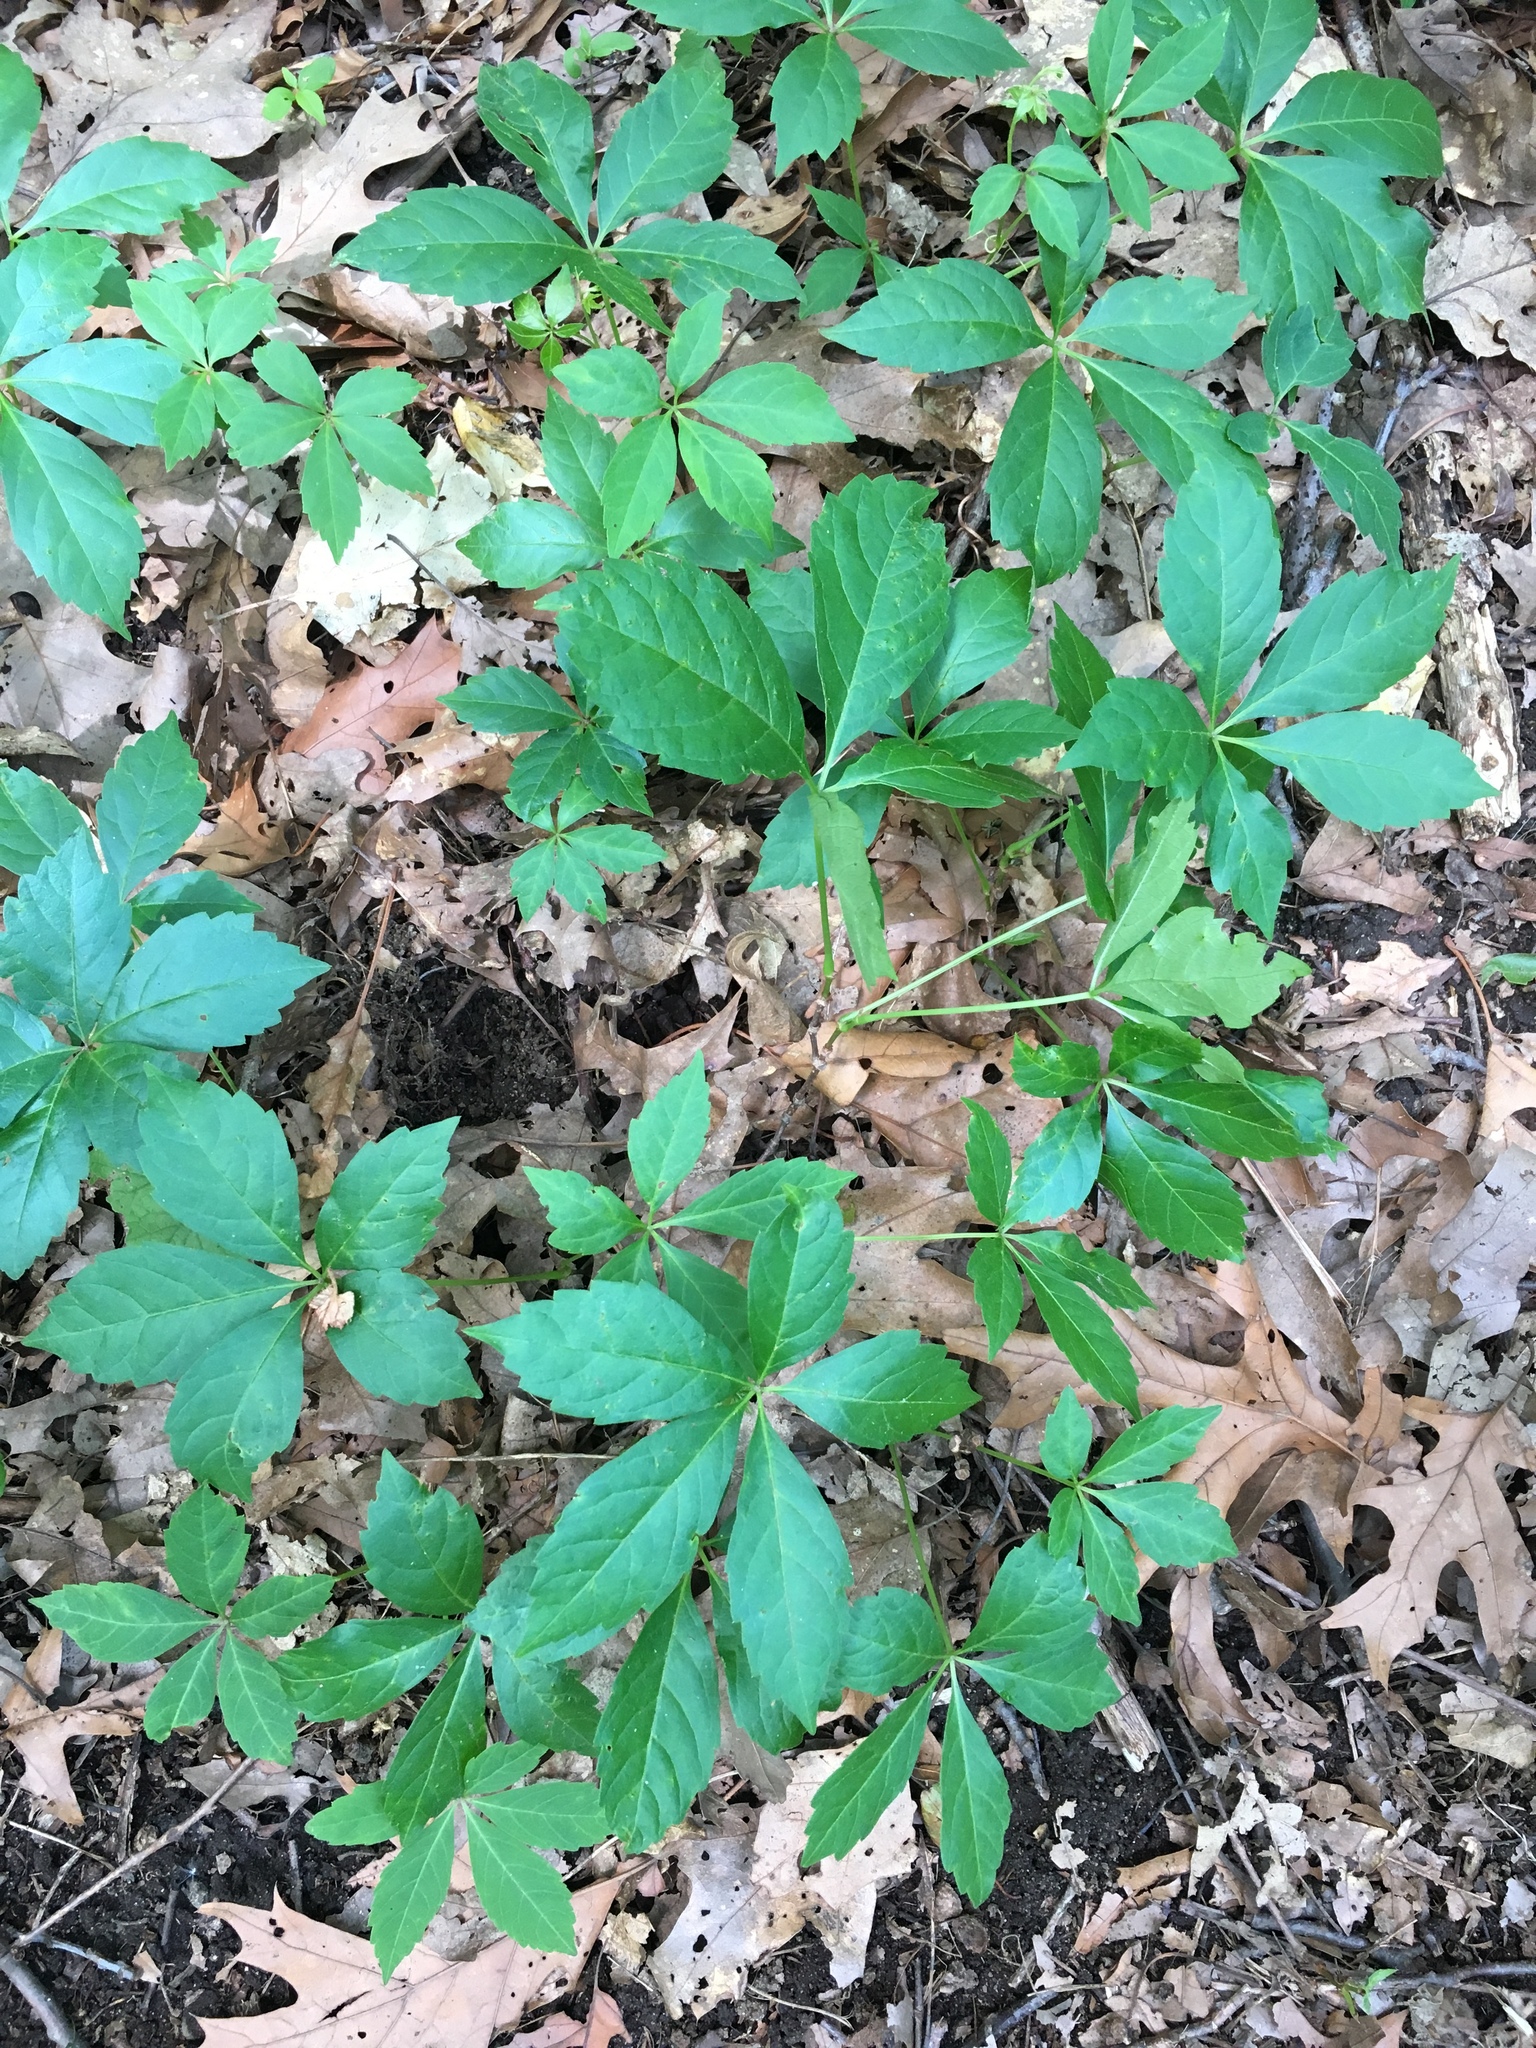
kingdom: Plantae
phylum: Tracheophyta
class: Magnoliopsida
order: Vitales
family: Vitaceae
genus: Parthenocissus
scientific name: Parthenocissus quinquefolia
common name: Virginia-creeper
